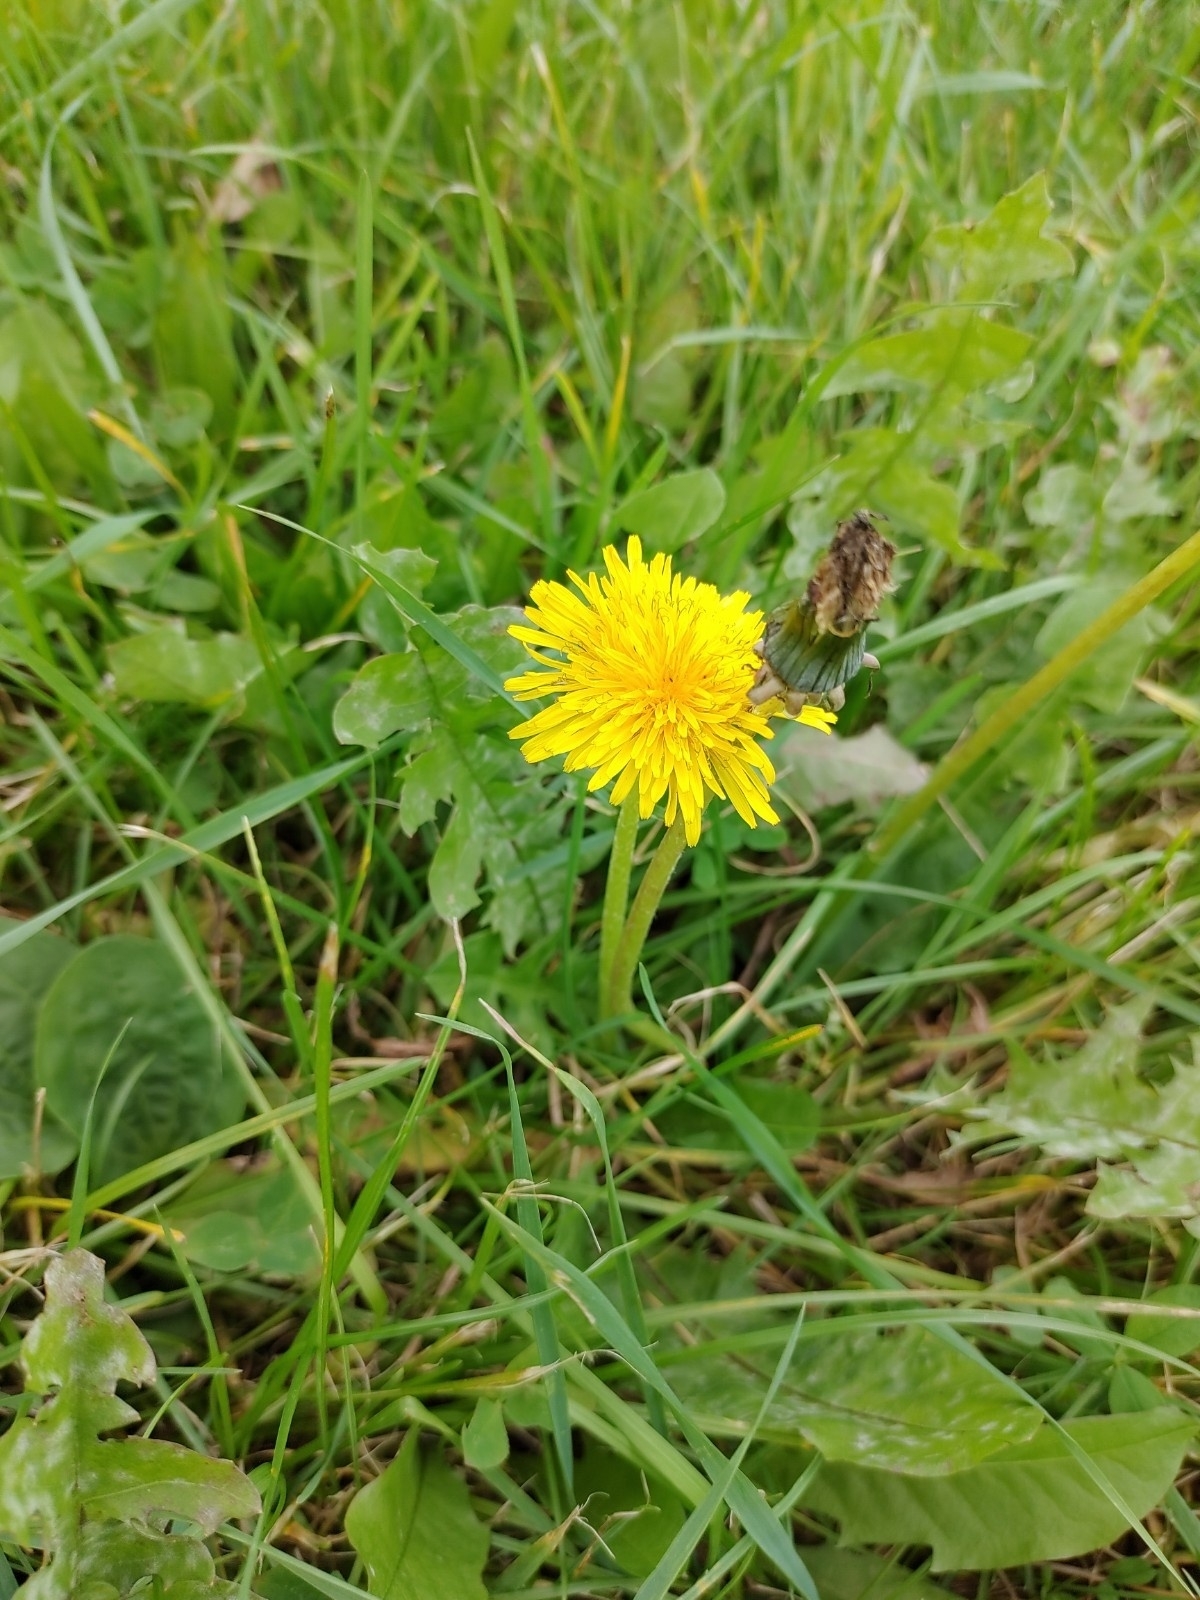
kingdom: Plantae
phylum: Tracheophyta
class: Magnoliopsida
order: Asterales
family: Asteraceae
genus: Taraxacum
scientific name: Taraxacum officinale
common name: Common dandelion
